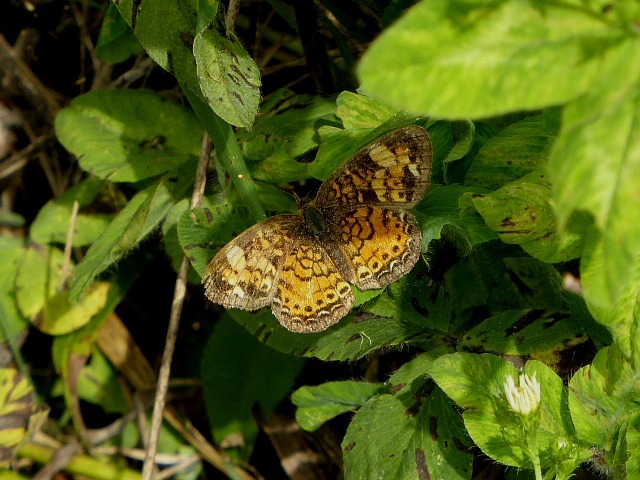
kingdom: Animalia
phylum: Arthropoda
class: Insecta
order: Lepidoptera
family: Nymphalidae
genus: Phyciodes
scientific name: Phyciodes tharos
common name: Pearl crescent
